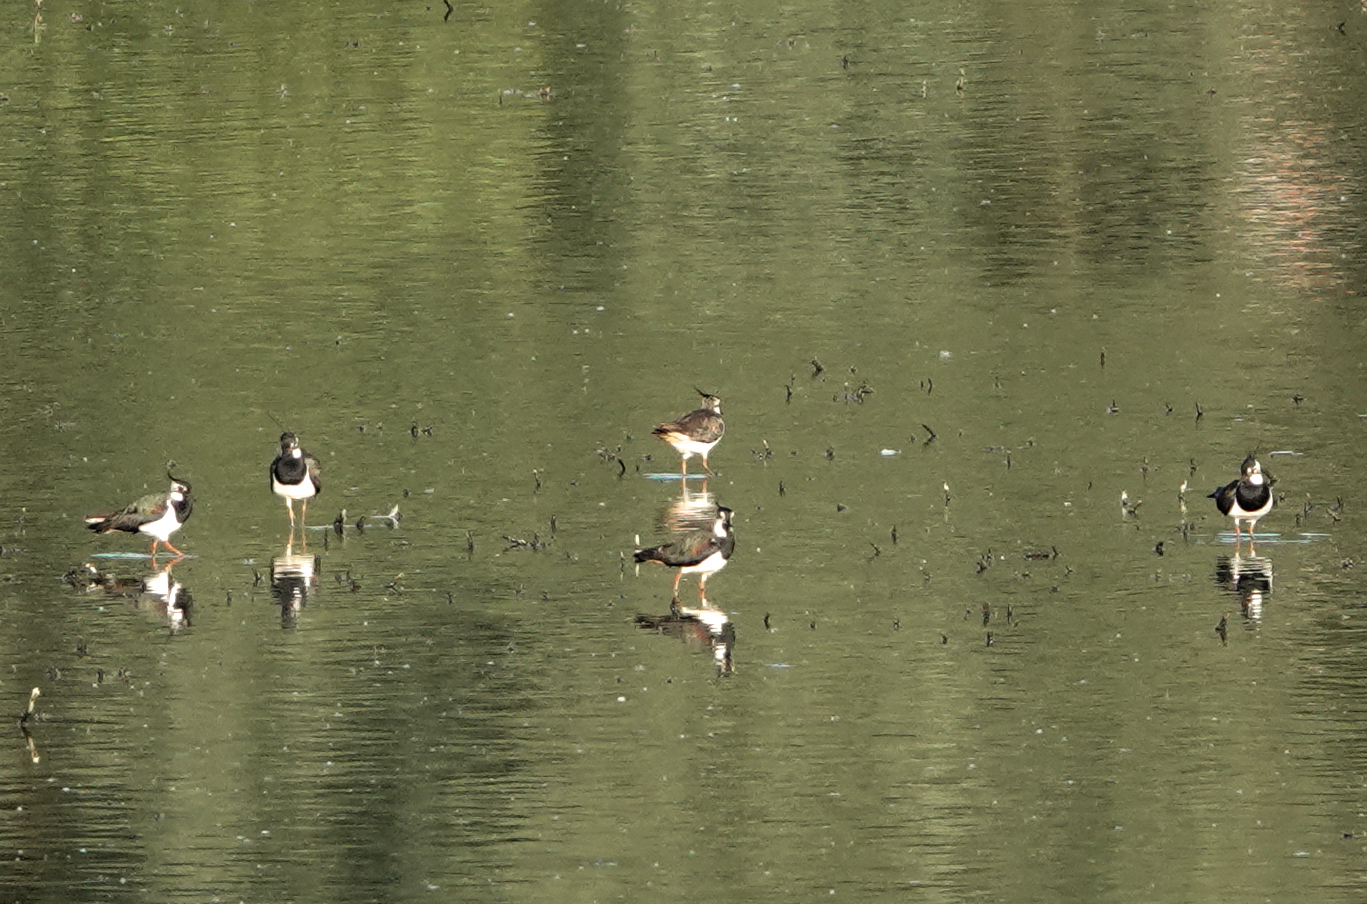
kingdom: Animalia
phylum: Chordata
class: Aves
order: Charadriiformes
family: Charadriidae
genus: Vanellus
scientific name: Vanellus vanellus
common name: Northern lapwing
